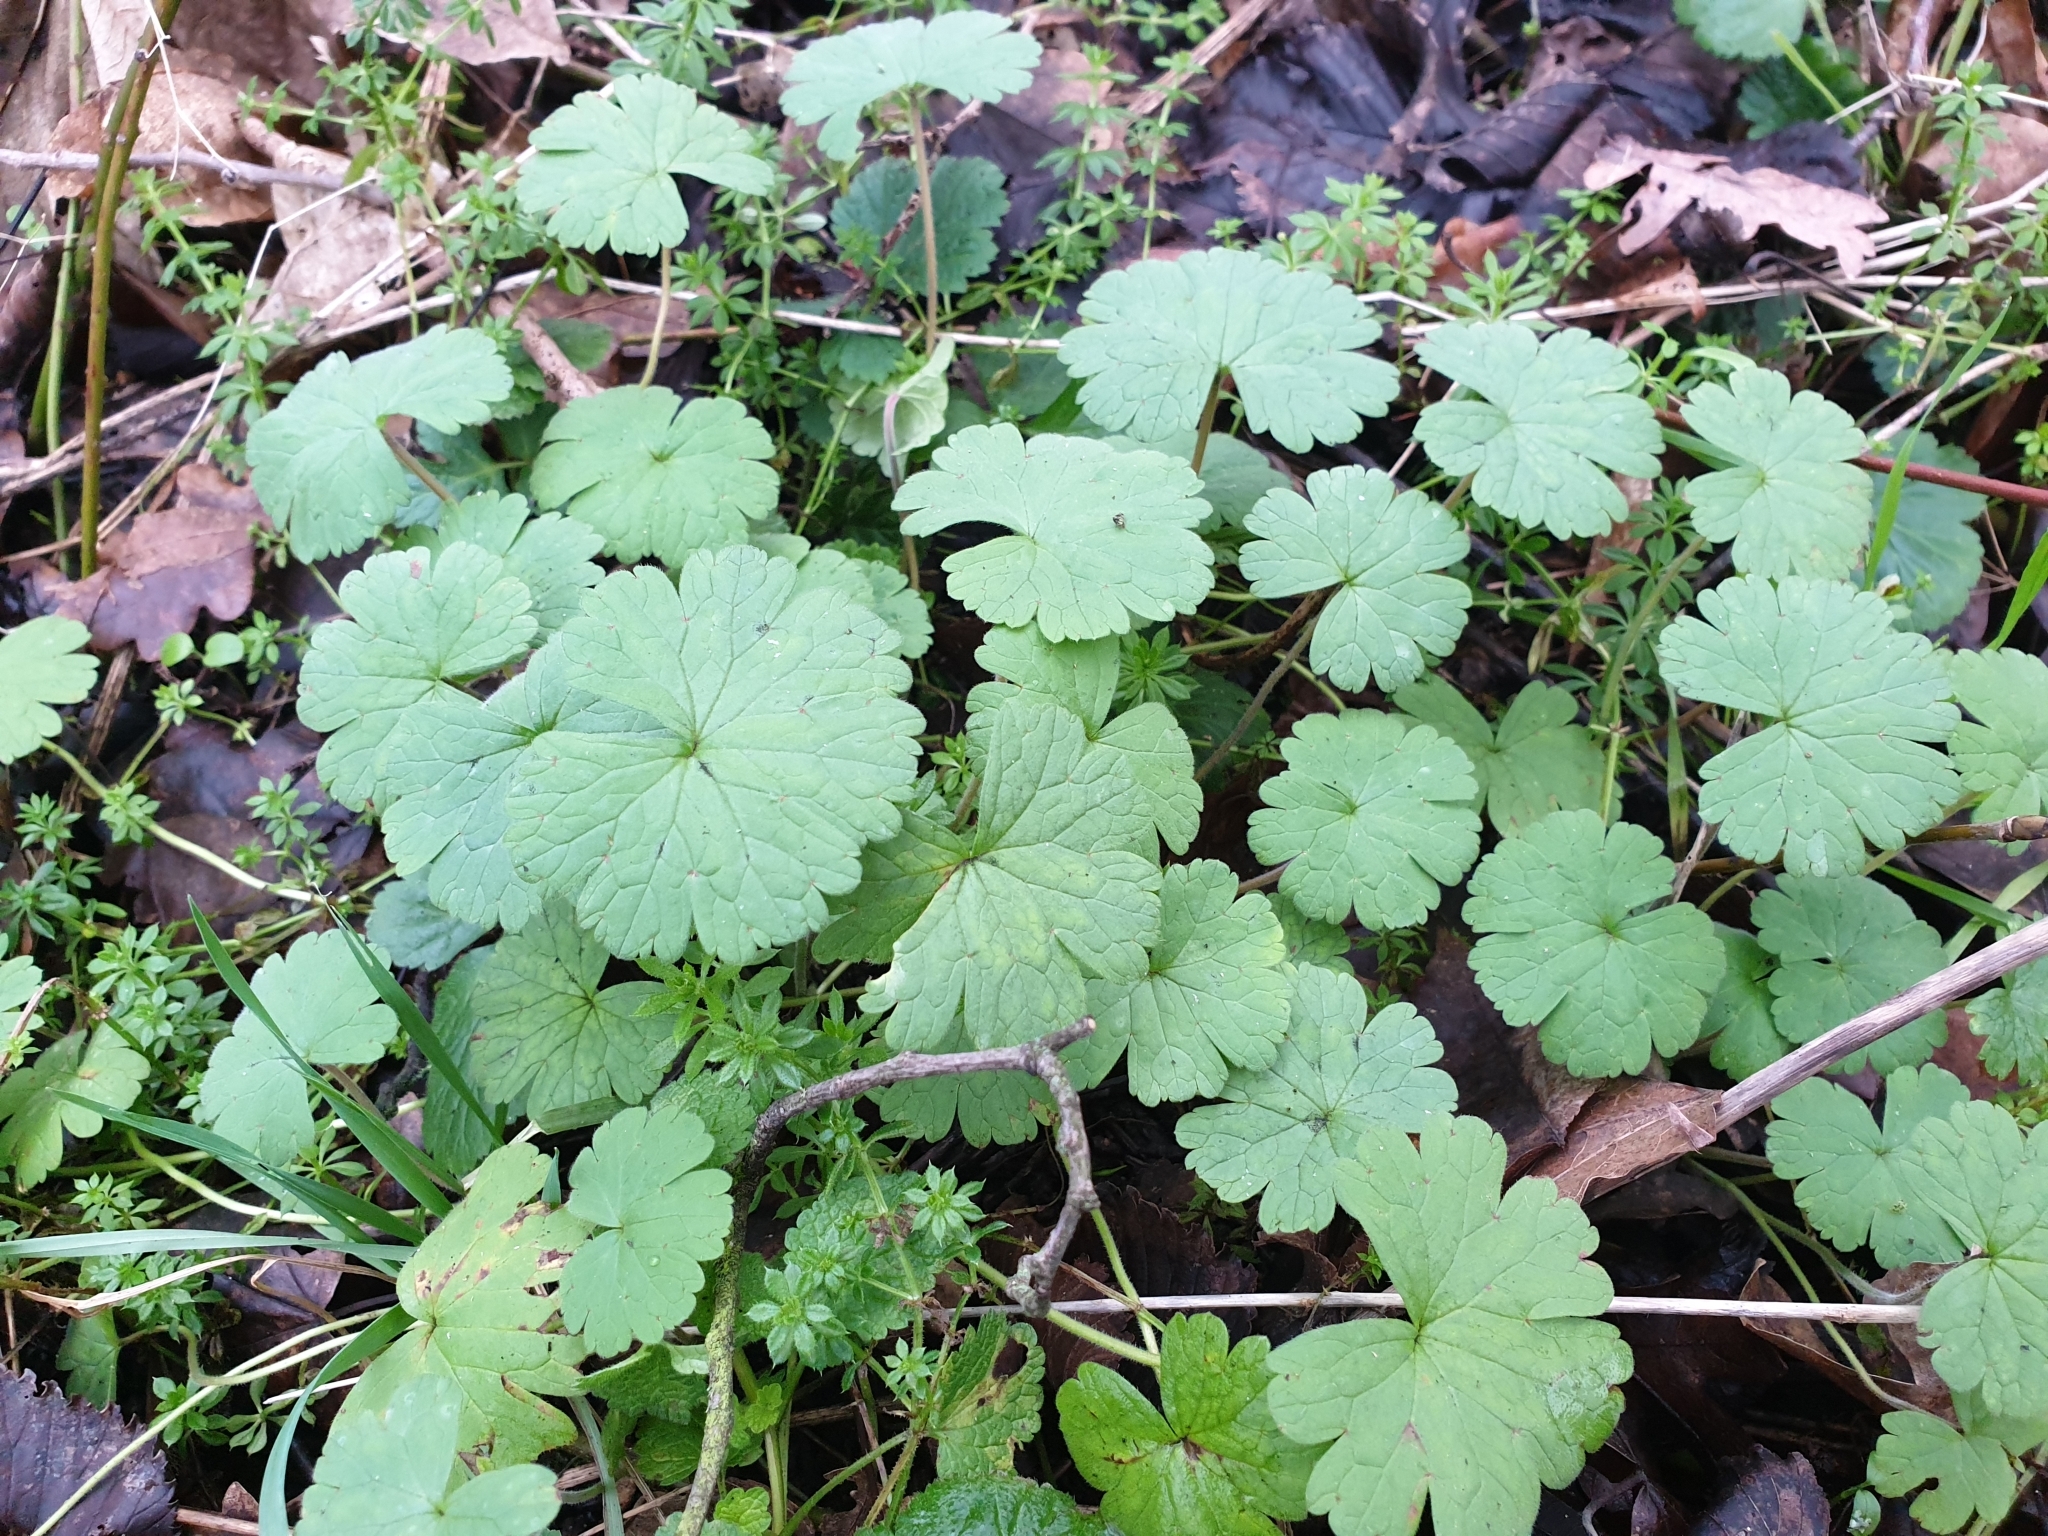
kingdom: Plantae
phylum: Tracheophyta
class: Magnoliopsida
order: Geraniales
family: Geraniaceae
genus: Geranium
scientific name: Geranium rotundifolium
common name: Round-leaved crane's-bill
